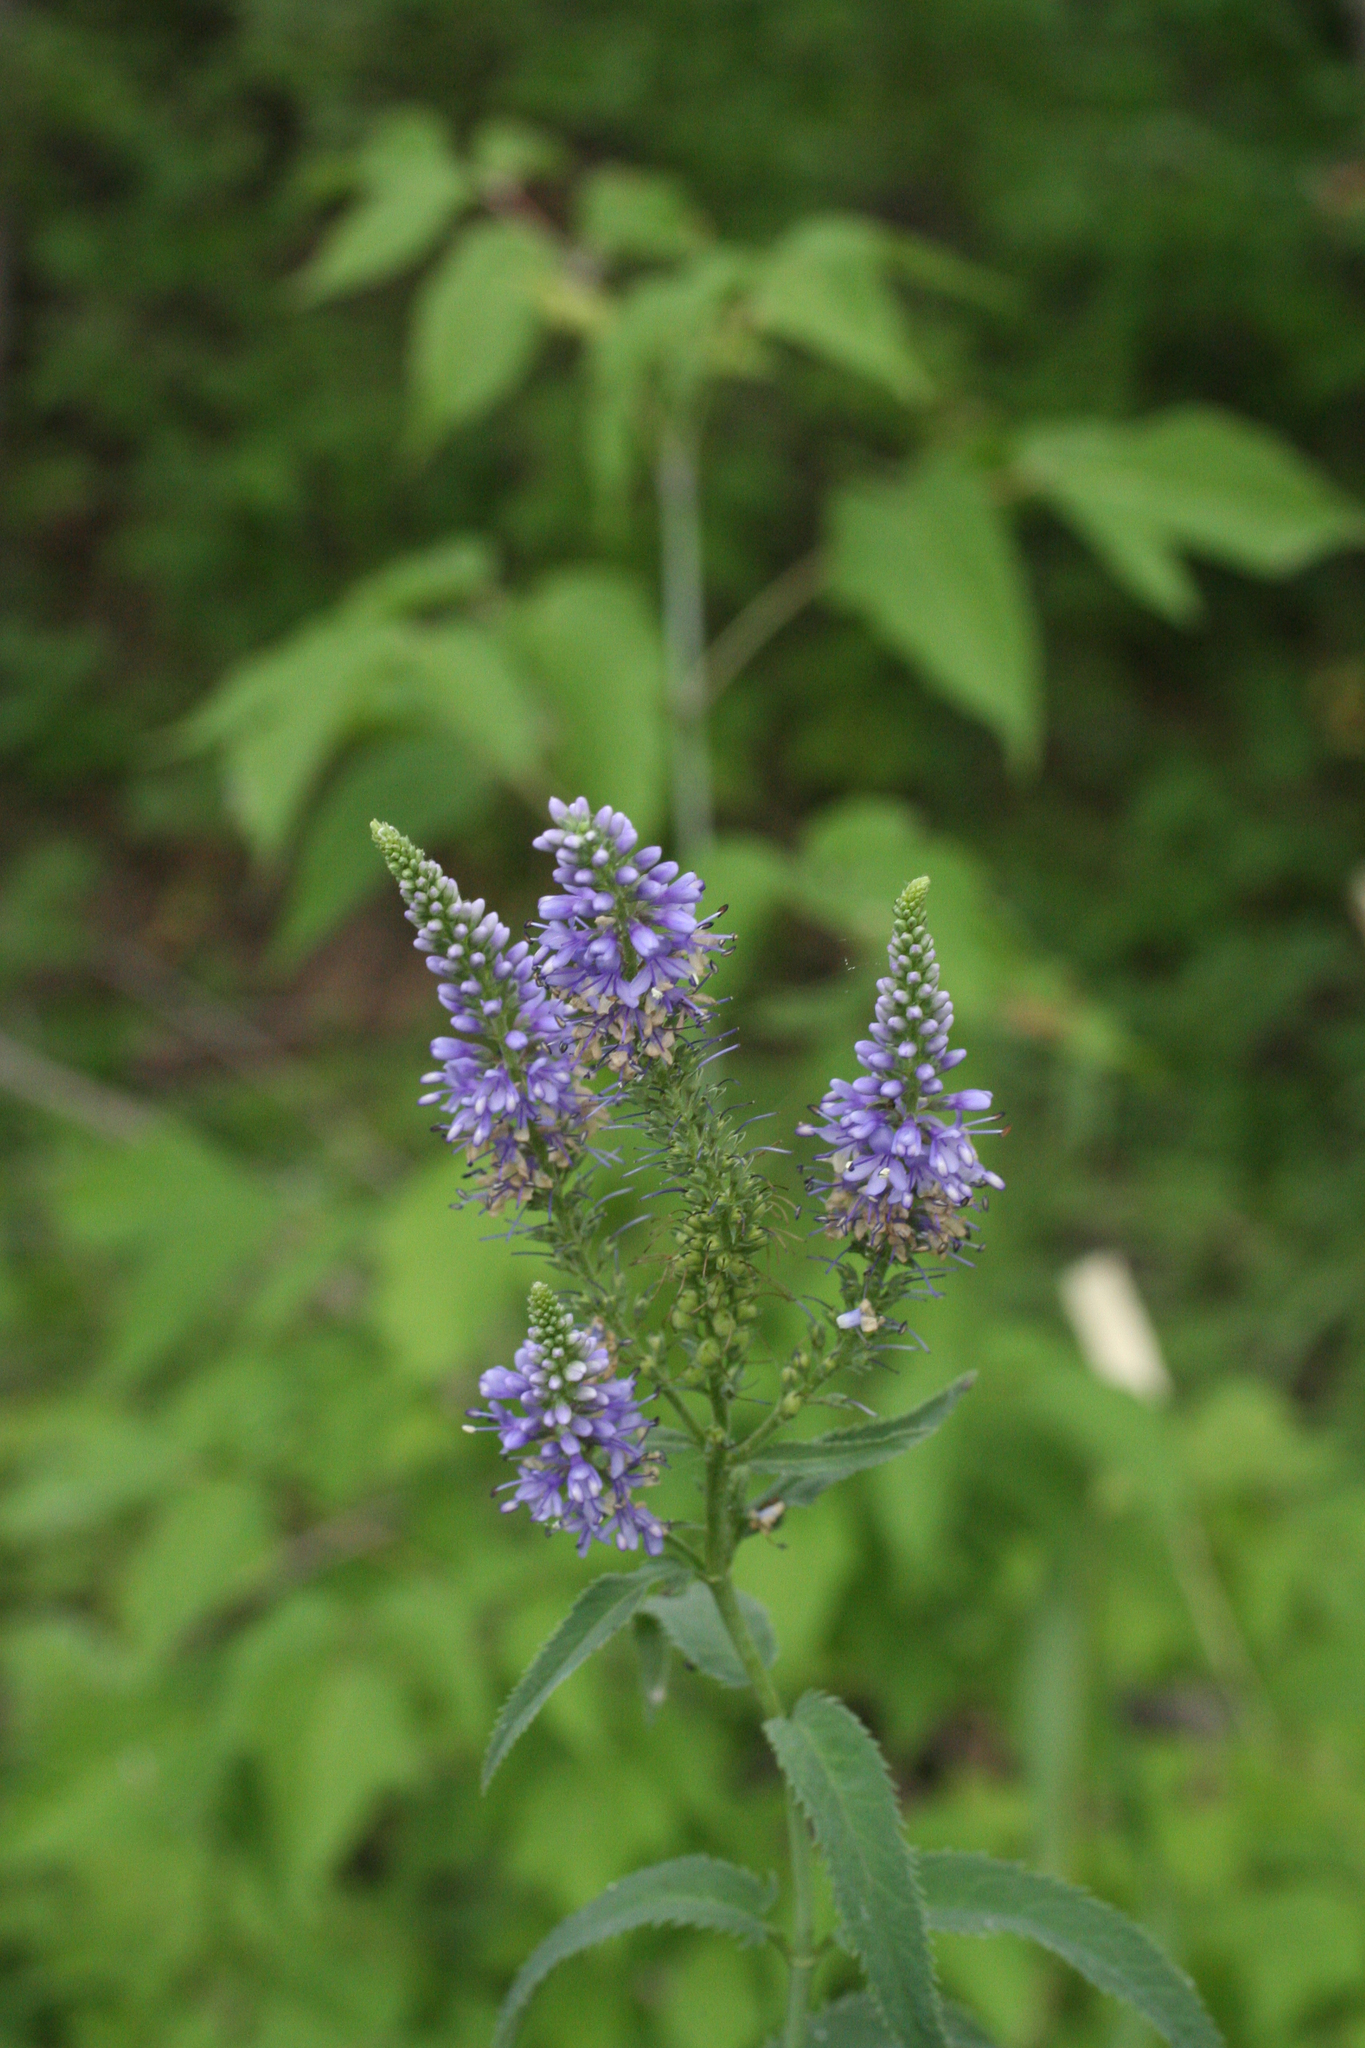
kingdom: Plantae
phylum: Tracheophyta
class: Magnoliopsida
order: Lamiales
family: Plantaginaceae
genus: Veronica
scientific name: Veronica longifolia
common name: Garden speedwell
